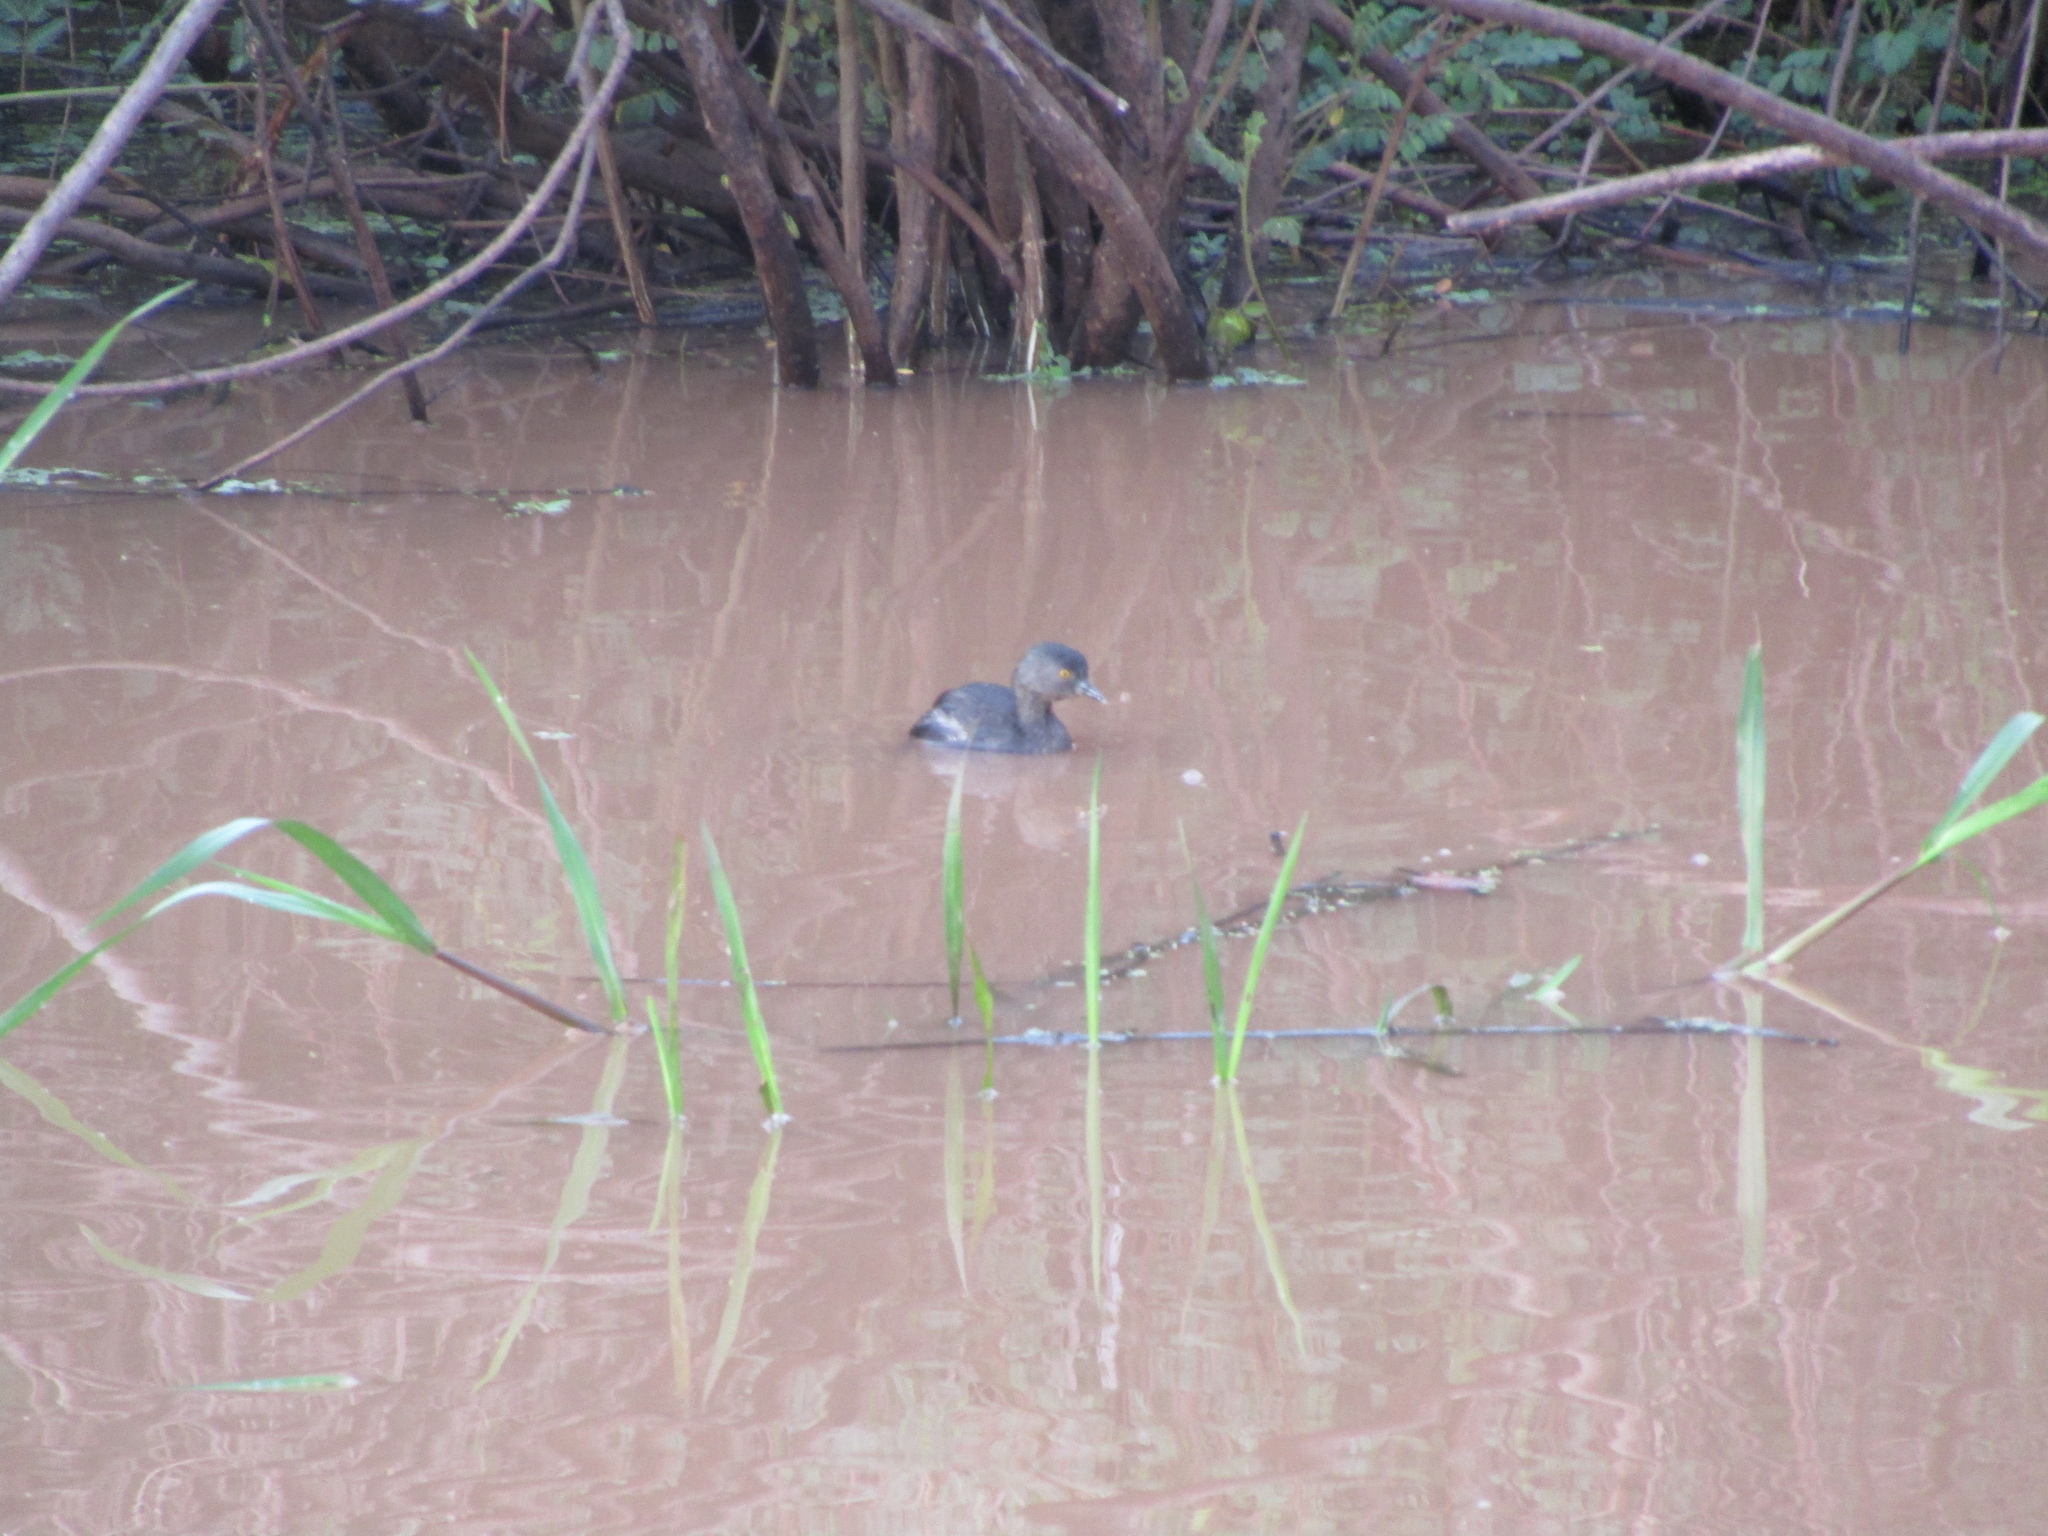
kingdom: Animalia
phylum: Chordata
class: Aves
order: Podicipediformes
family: Podicipedidae
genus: Tachybaptus
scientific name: Tachybaptus dominicus
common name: Least grebe
